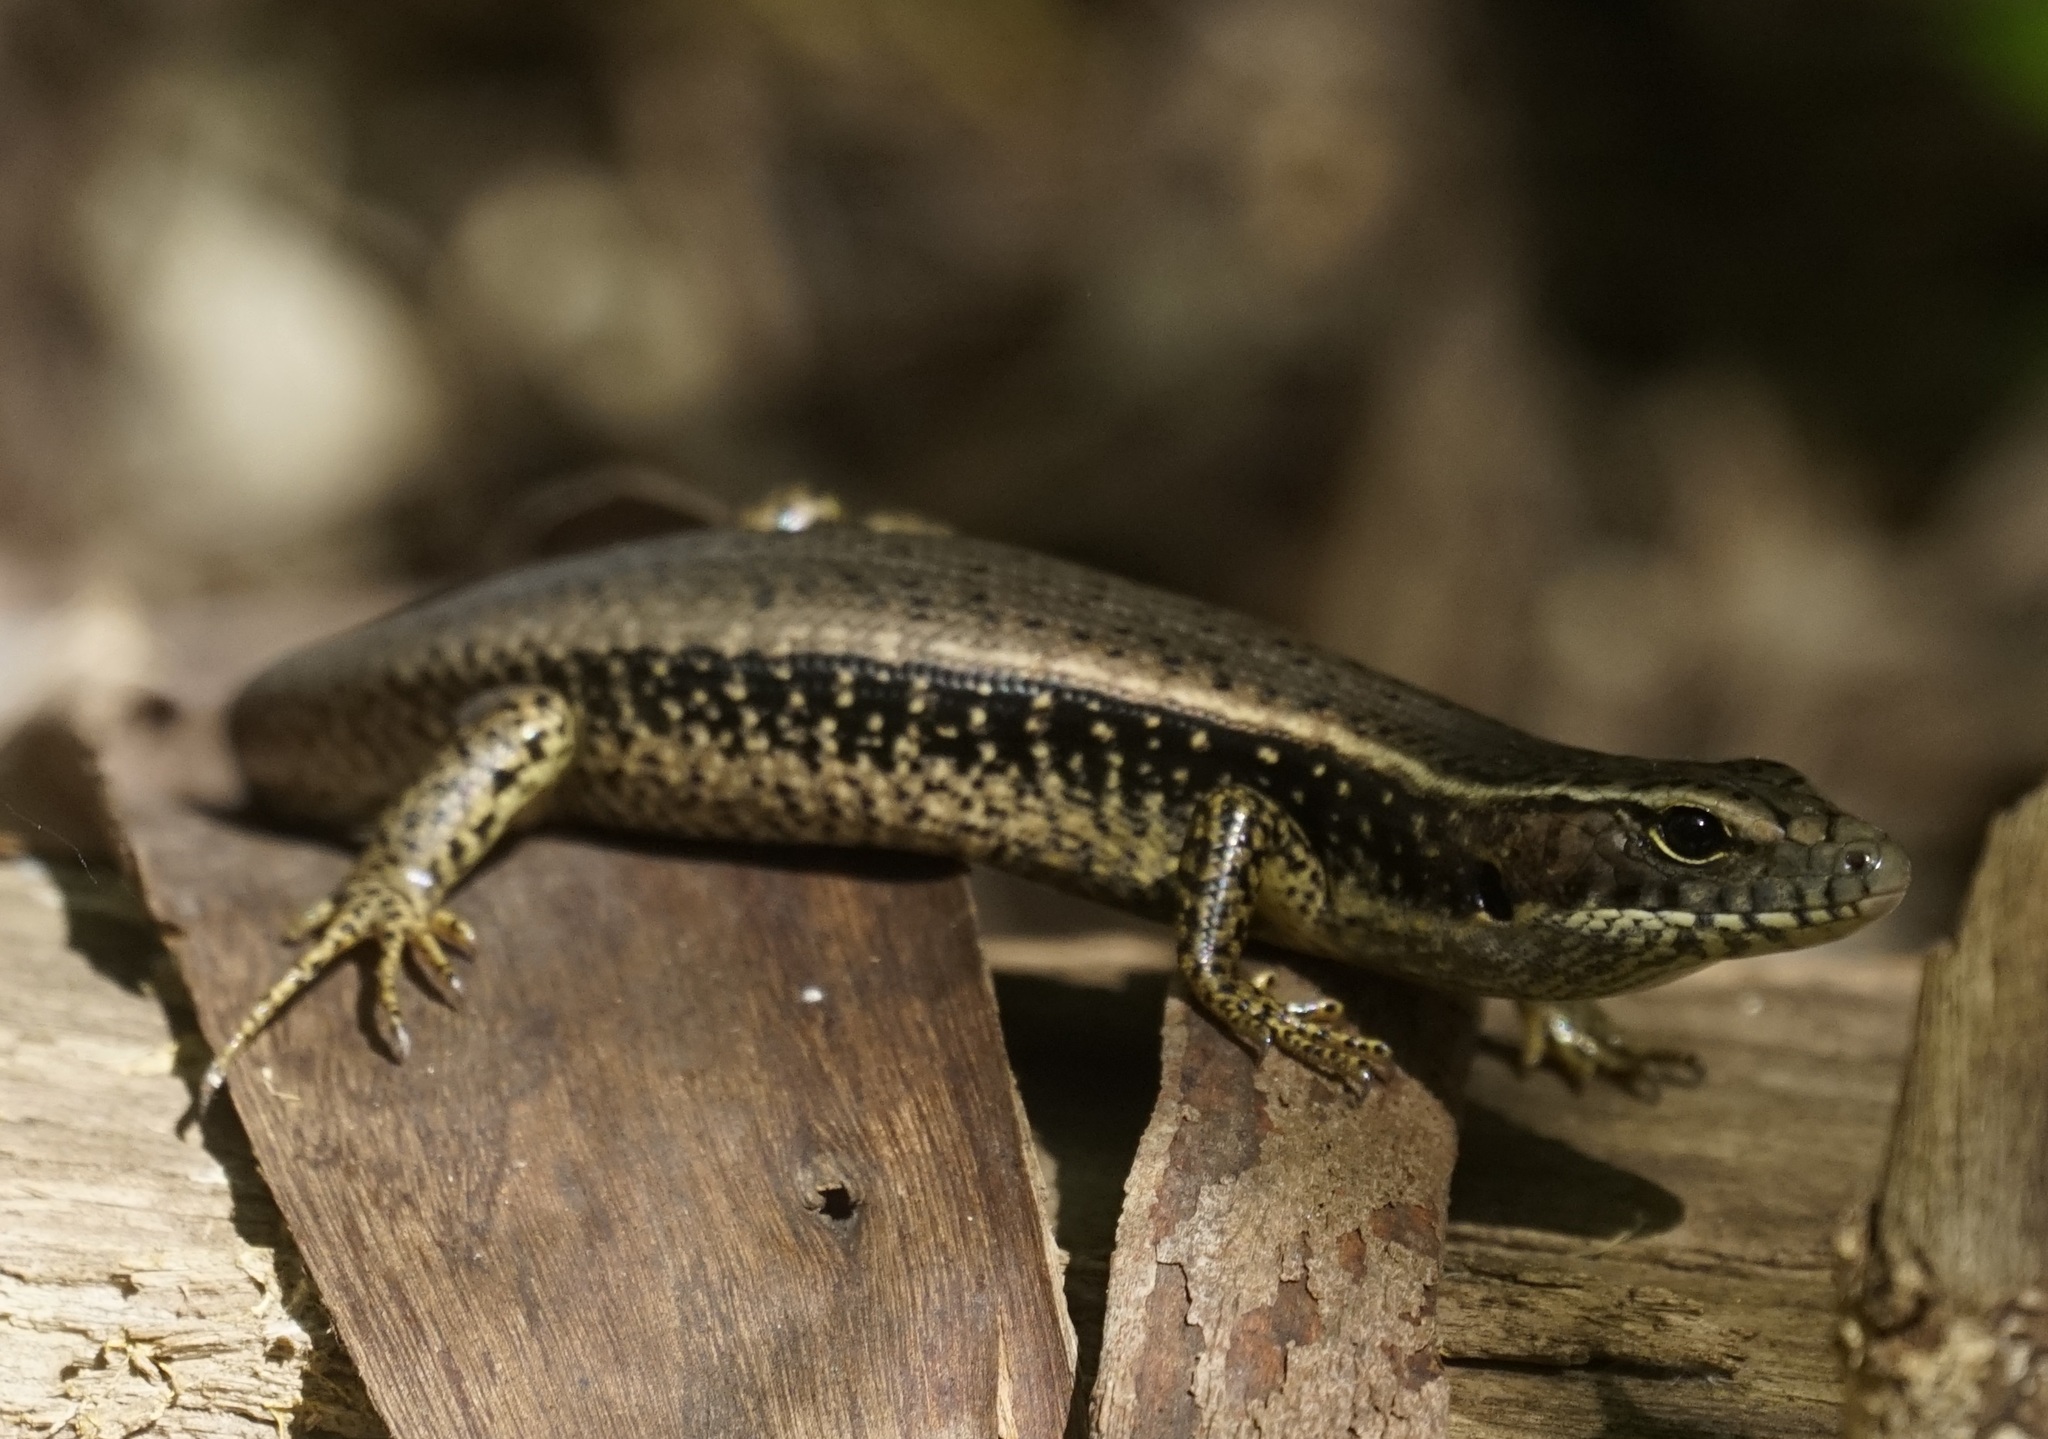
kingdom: Animalia
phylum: Chordata
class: Squamata
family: Scincidae
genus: Eulamprus
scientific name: Eulamprus quoyii
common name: Eastern water skink
